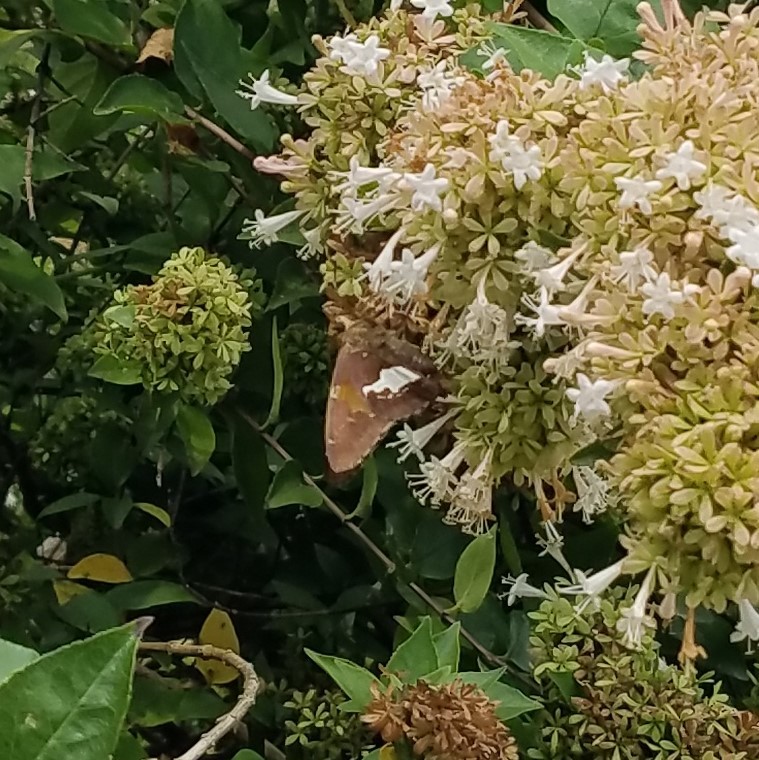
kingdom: Animalia
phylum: Arthropoda
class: Insecta
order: Lepidoptera
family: Hesperiidae
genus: Epargyreus
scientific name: Epargyreus clarus
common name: Silver-spotted skipper
